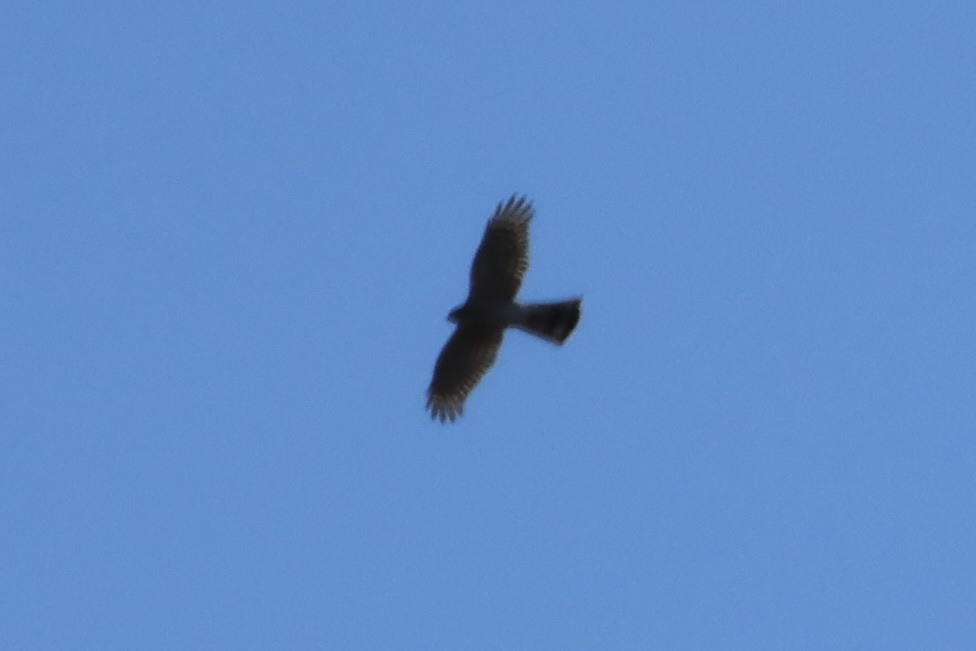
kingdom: Animalia
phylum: Chordata
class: Aves
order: Accipitriformes
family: Accipitridae
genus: Accipiter
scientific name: Accipiter striatus
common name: Sharp-shinned hawk
